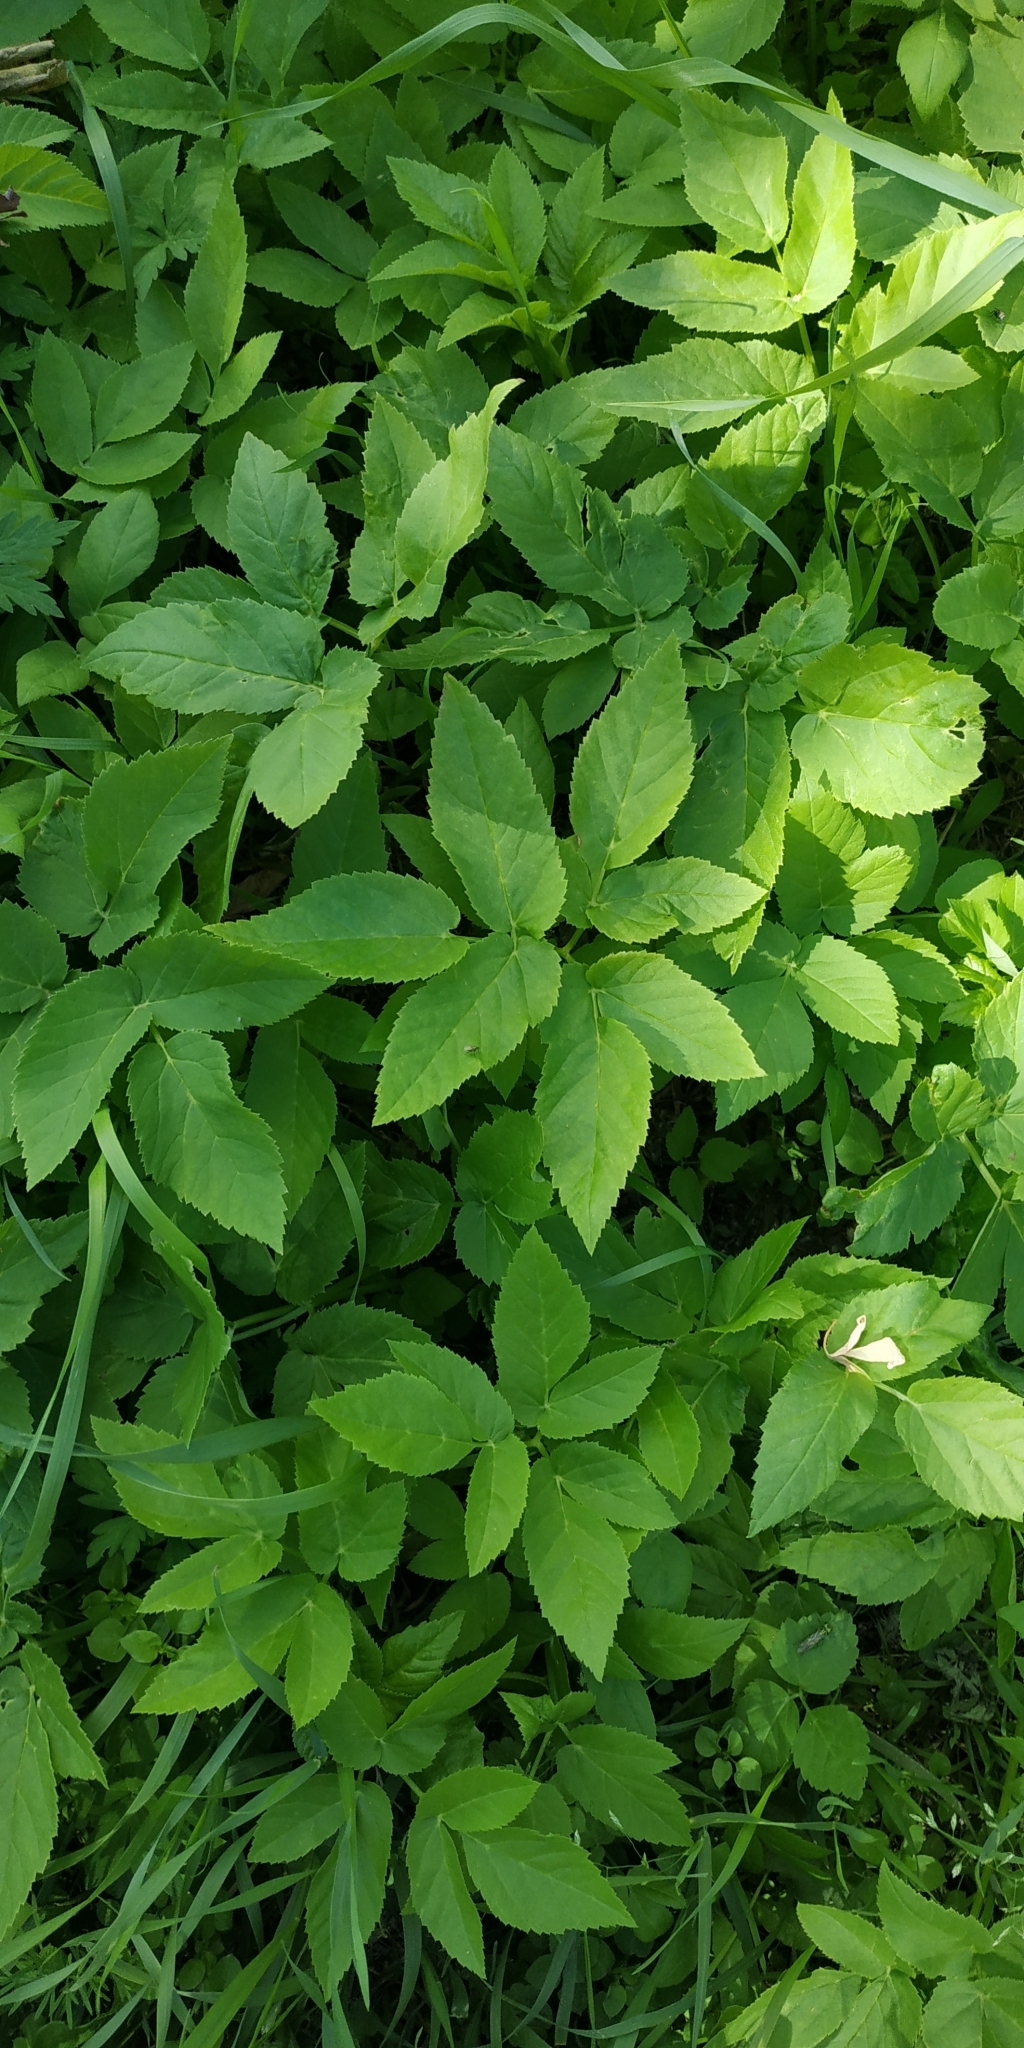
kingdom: Plantae
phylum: Tracheophyta
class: Magnoliopsida
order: Apiales
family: Apiaceae
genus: Aegopodium
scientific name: Aegopodium podagraria
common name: Ground-elder
